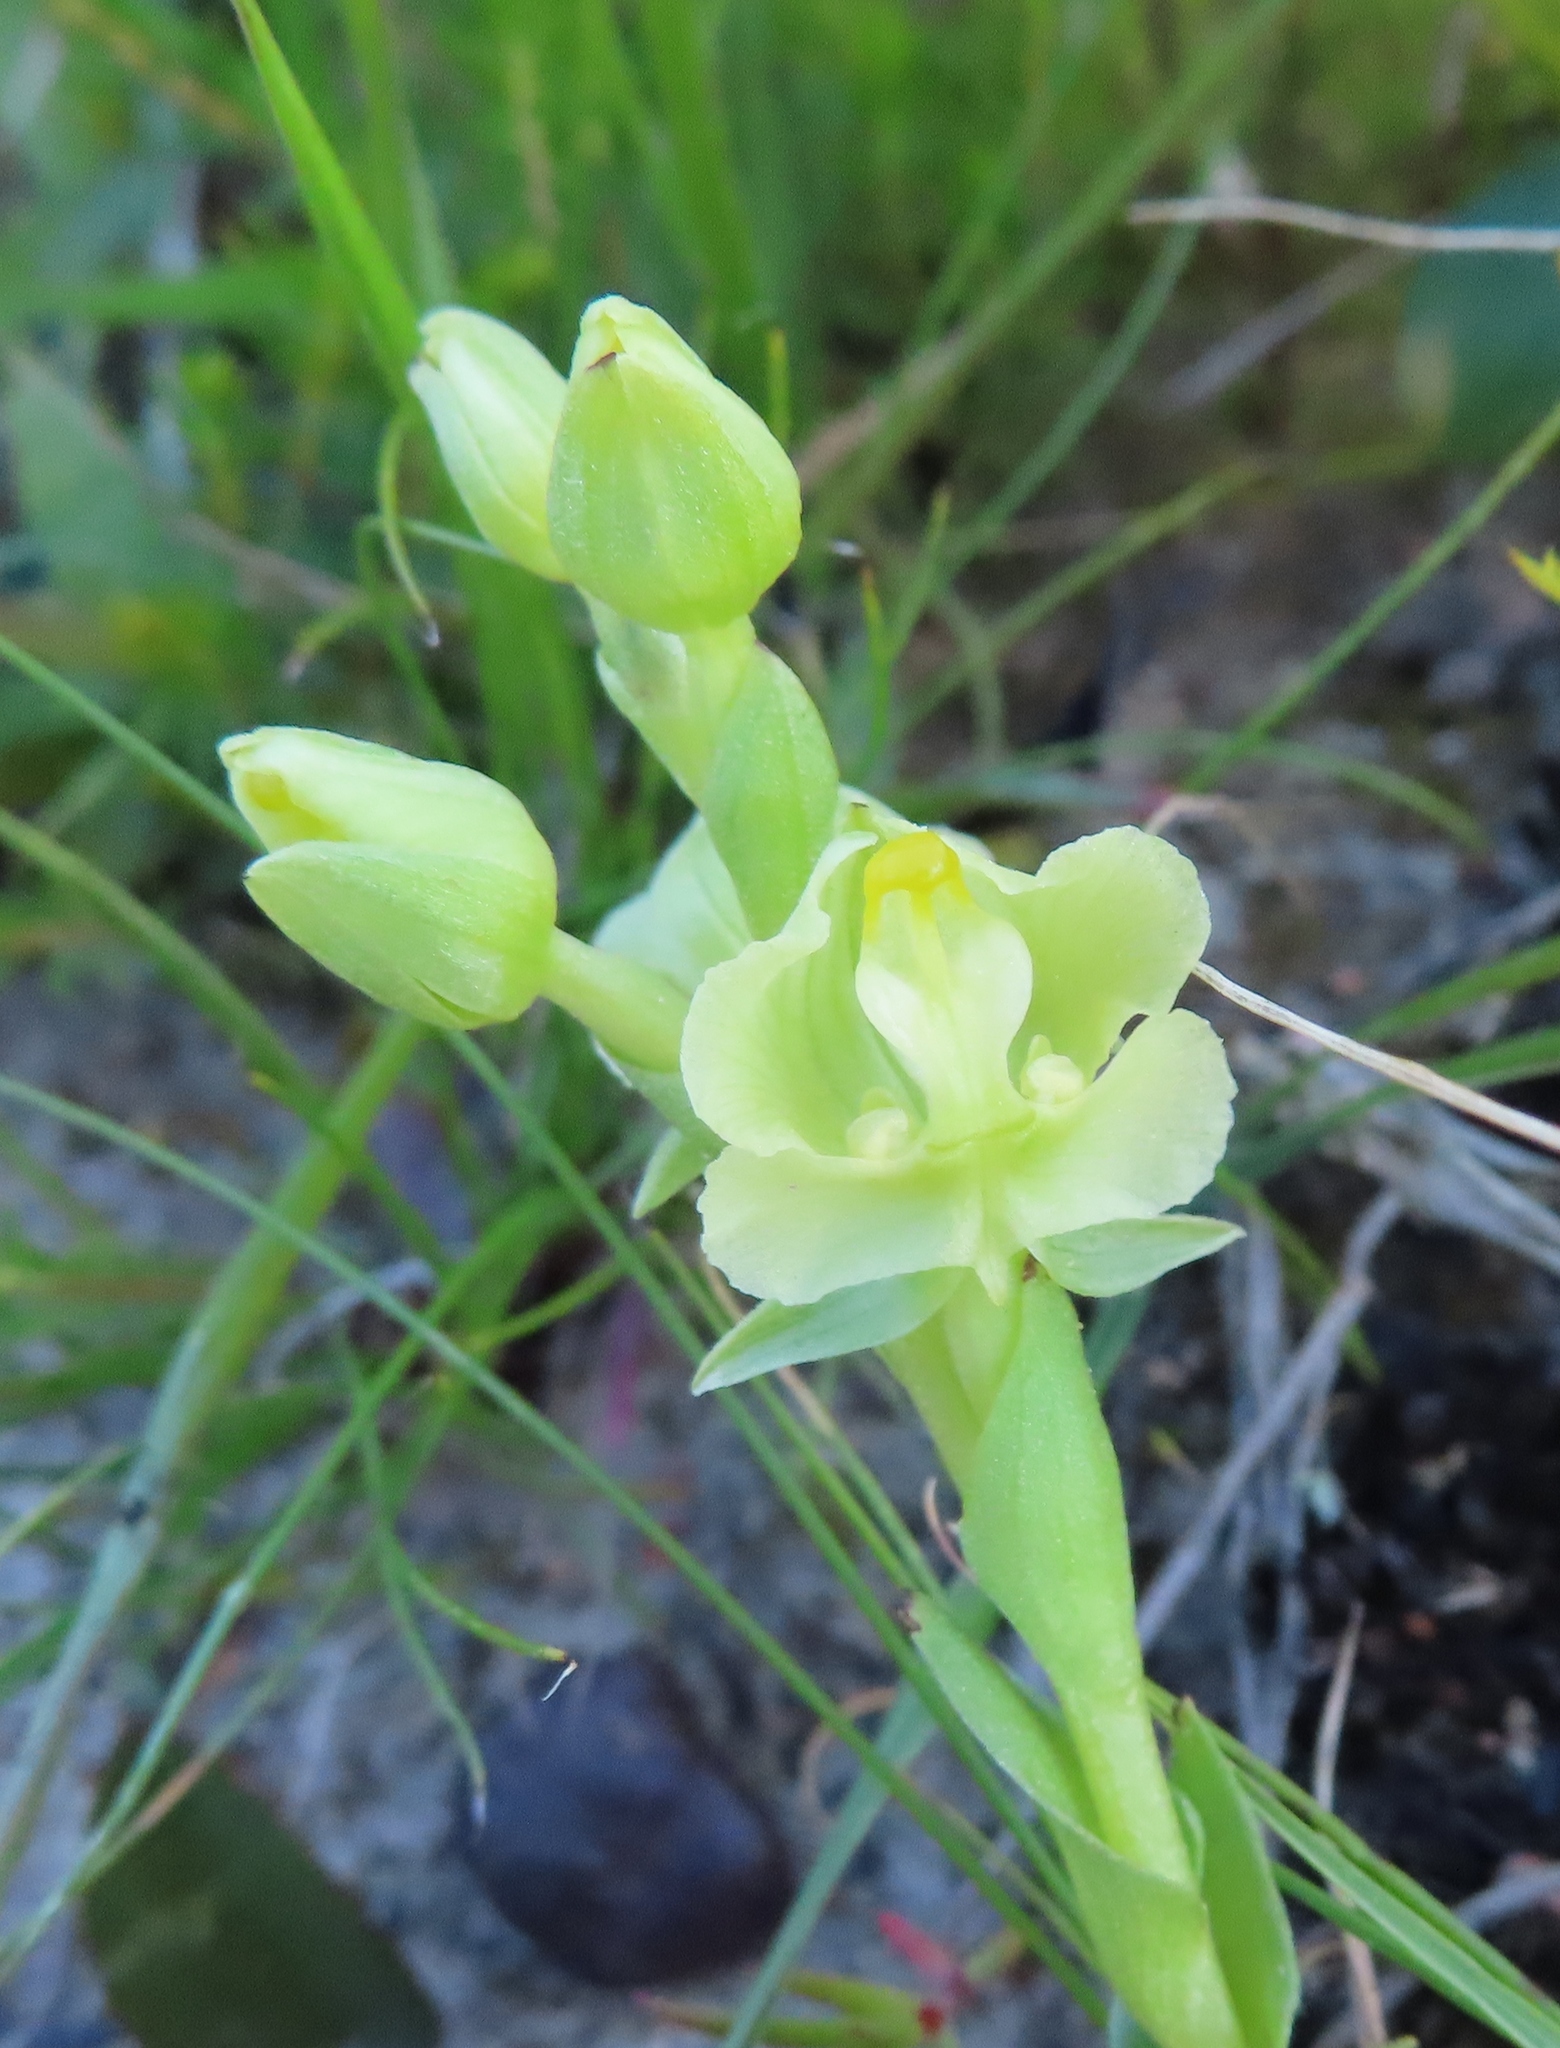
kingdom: Plantae
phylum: Tracheophyta
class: Liliopsida
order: Asparagales
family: Orchidaceae
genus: Pterygodium
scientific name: Pterygodium alatum
